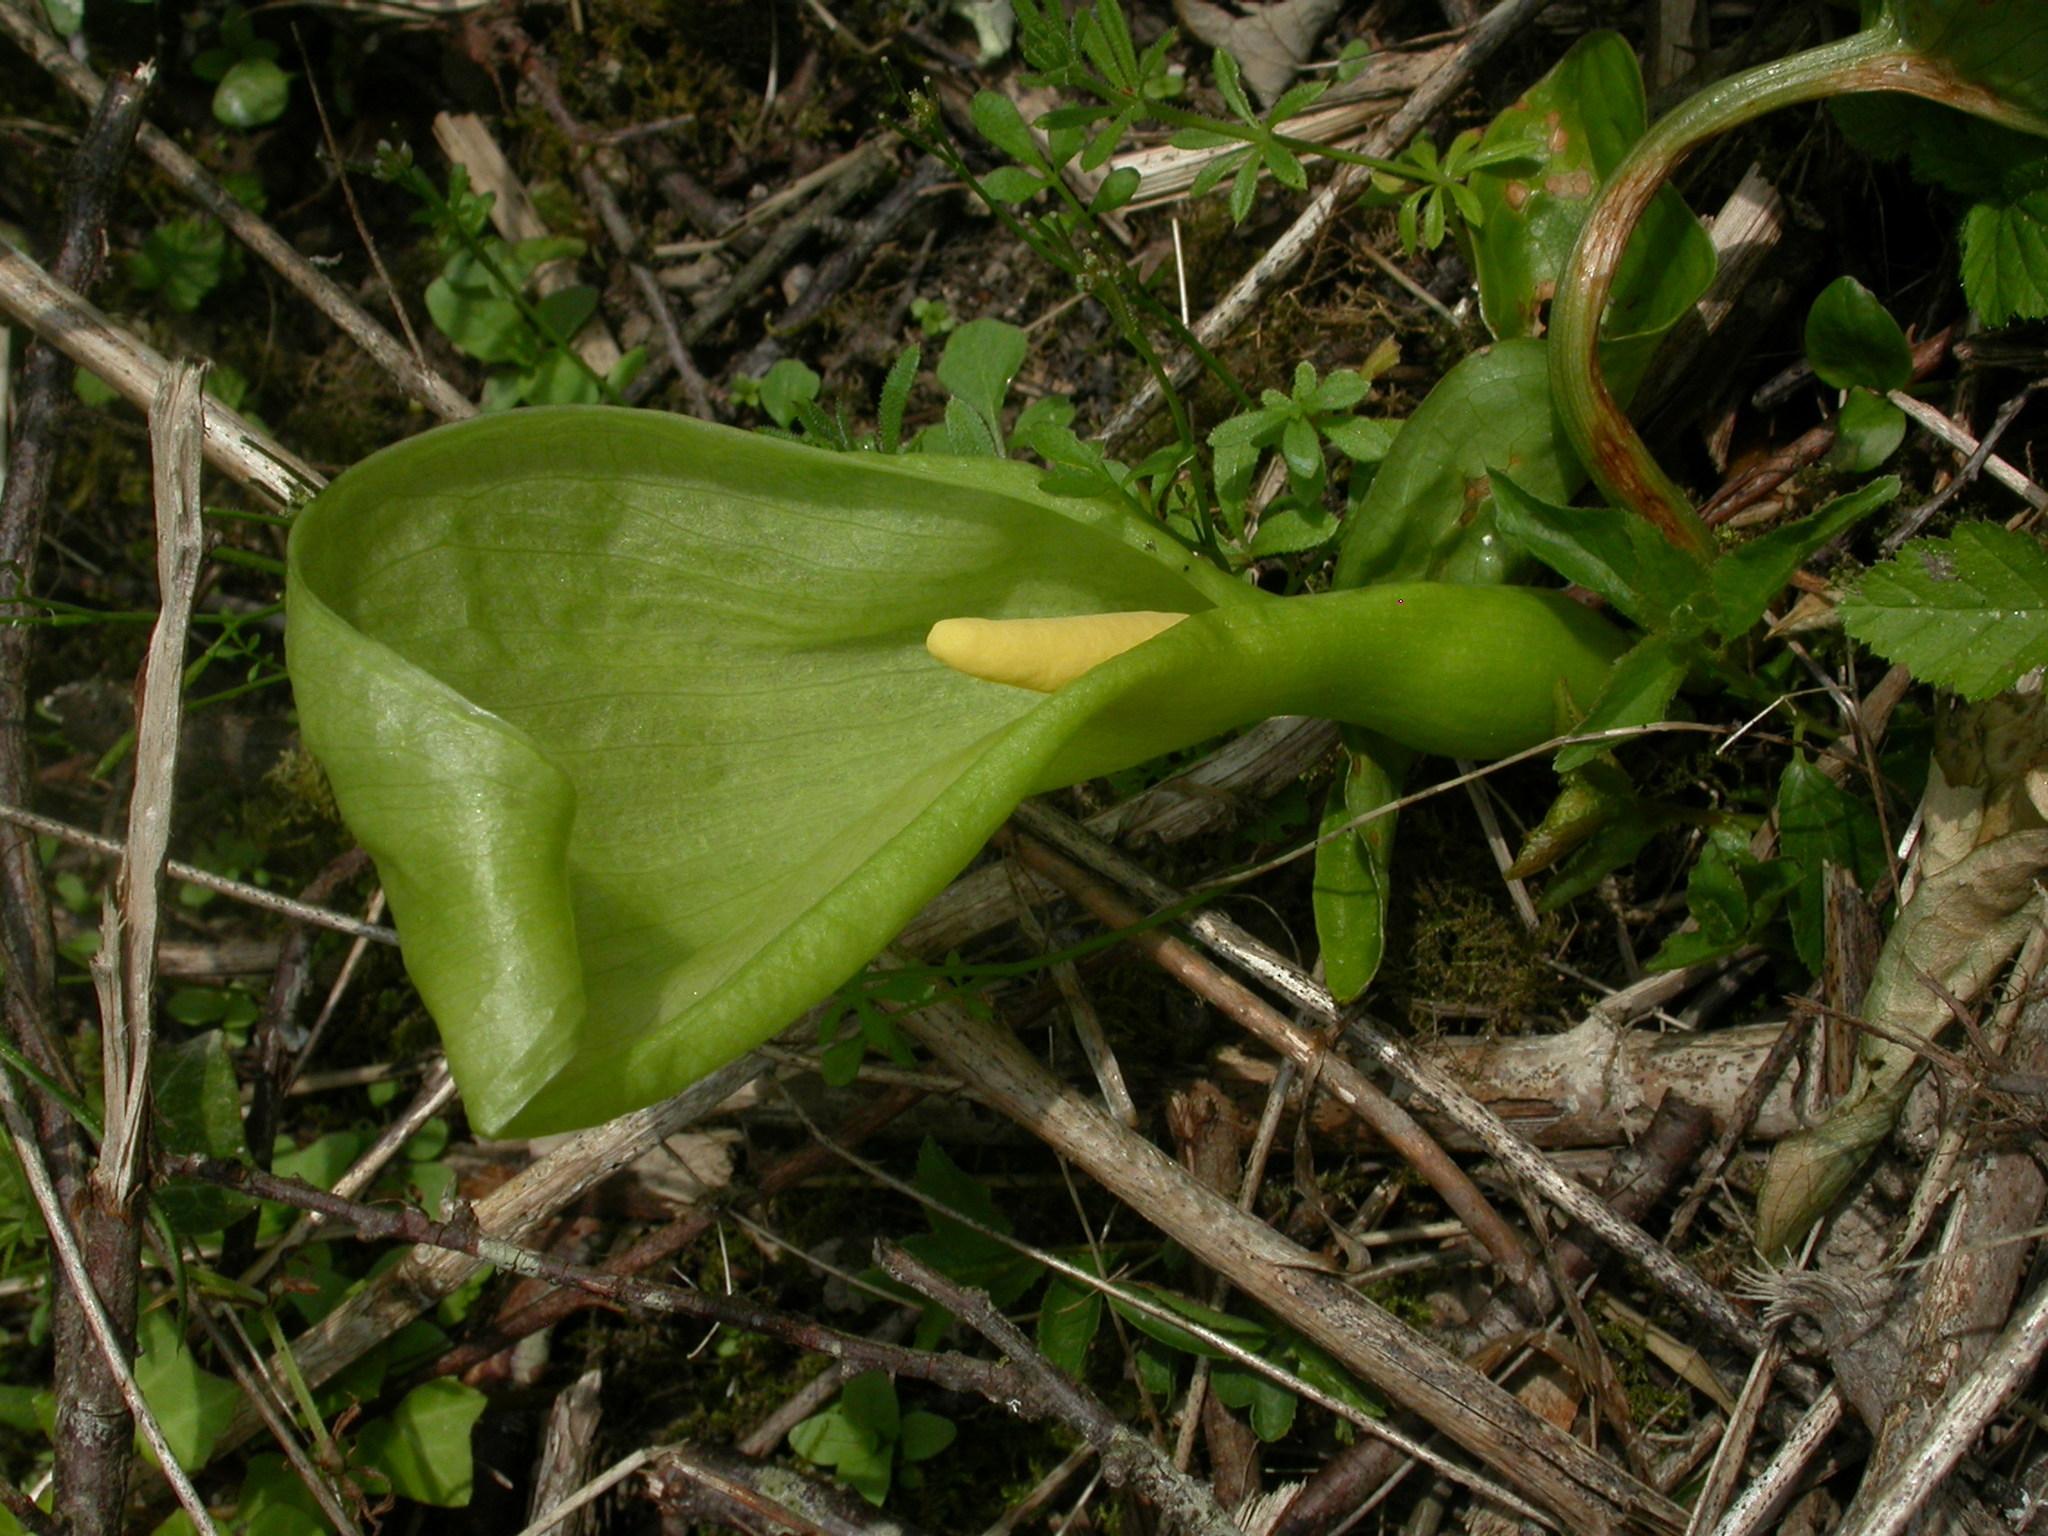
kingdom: Plantae
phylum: Tracheophyta
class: Liliopsida
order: Alismatales
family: Araceae
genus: Arum
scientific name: Arum italicum
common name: Italian lords-and-ladies
